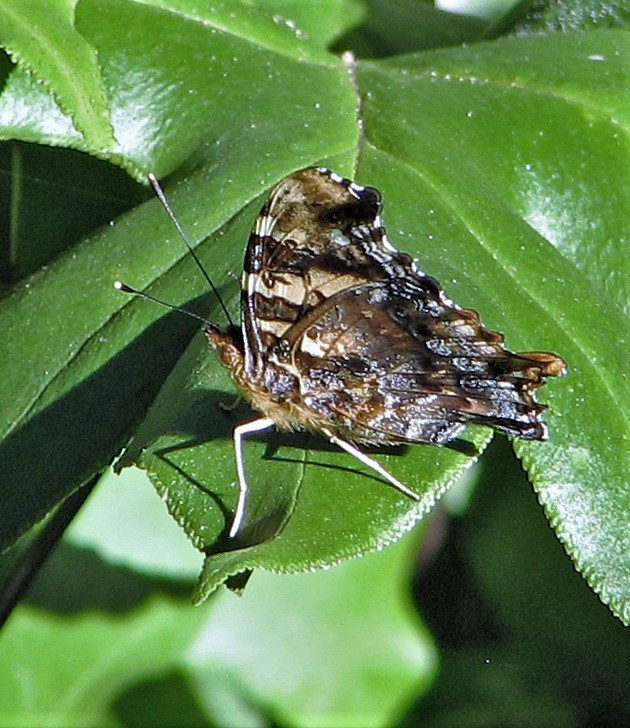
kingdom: Animalia
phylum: Arthropoda
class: Insecta
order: Lepidoptera
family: Nymphalidae
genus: Hypanartia
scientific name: Hypanartia bella
